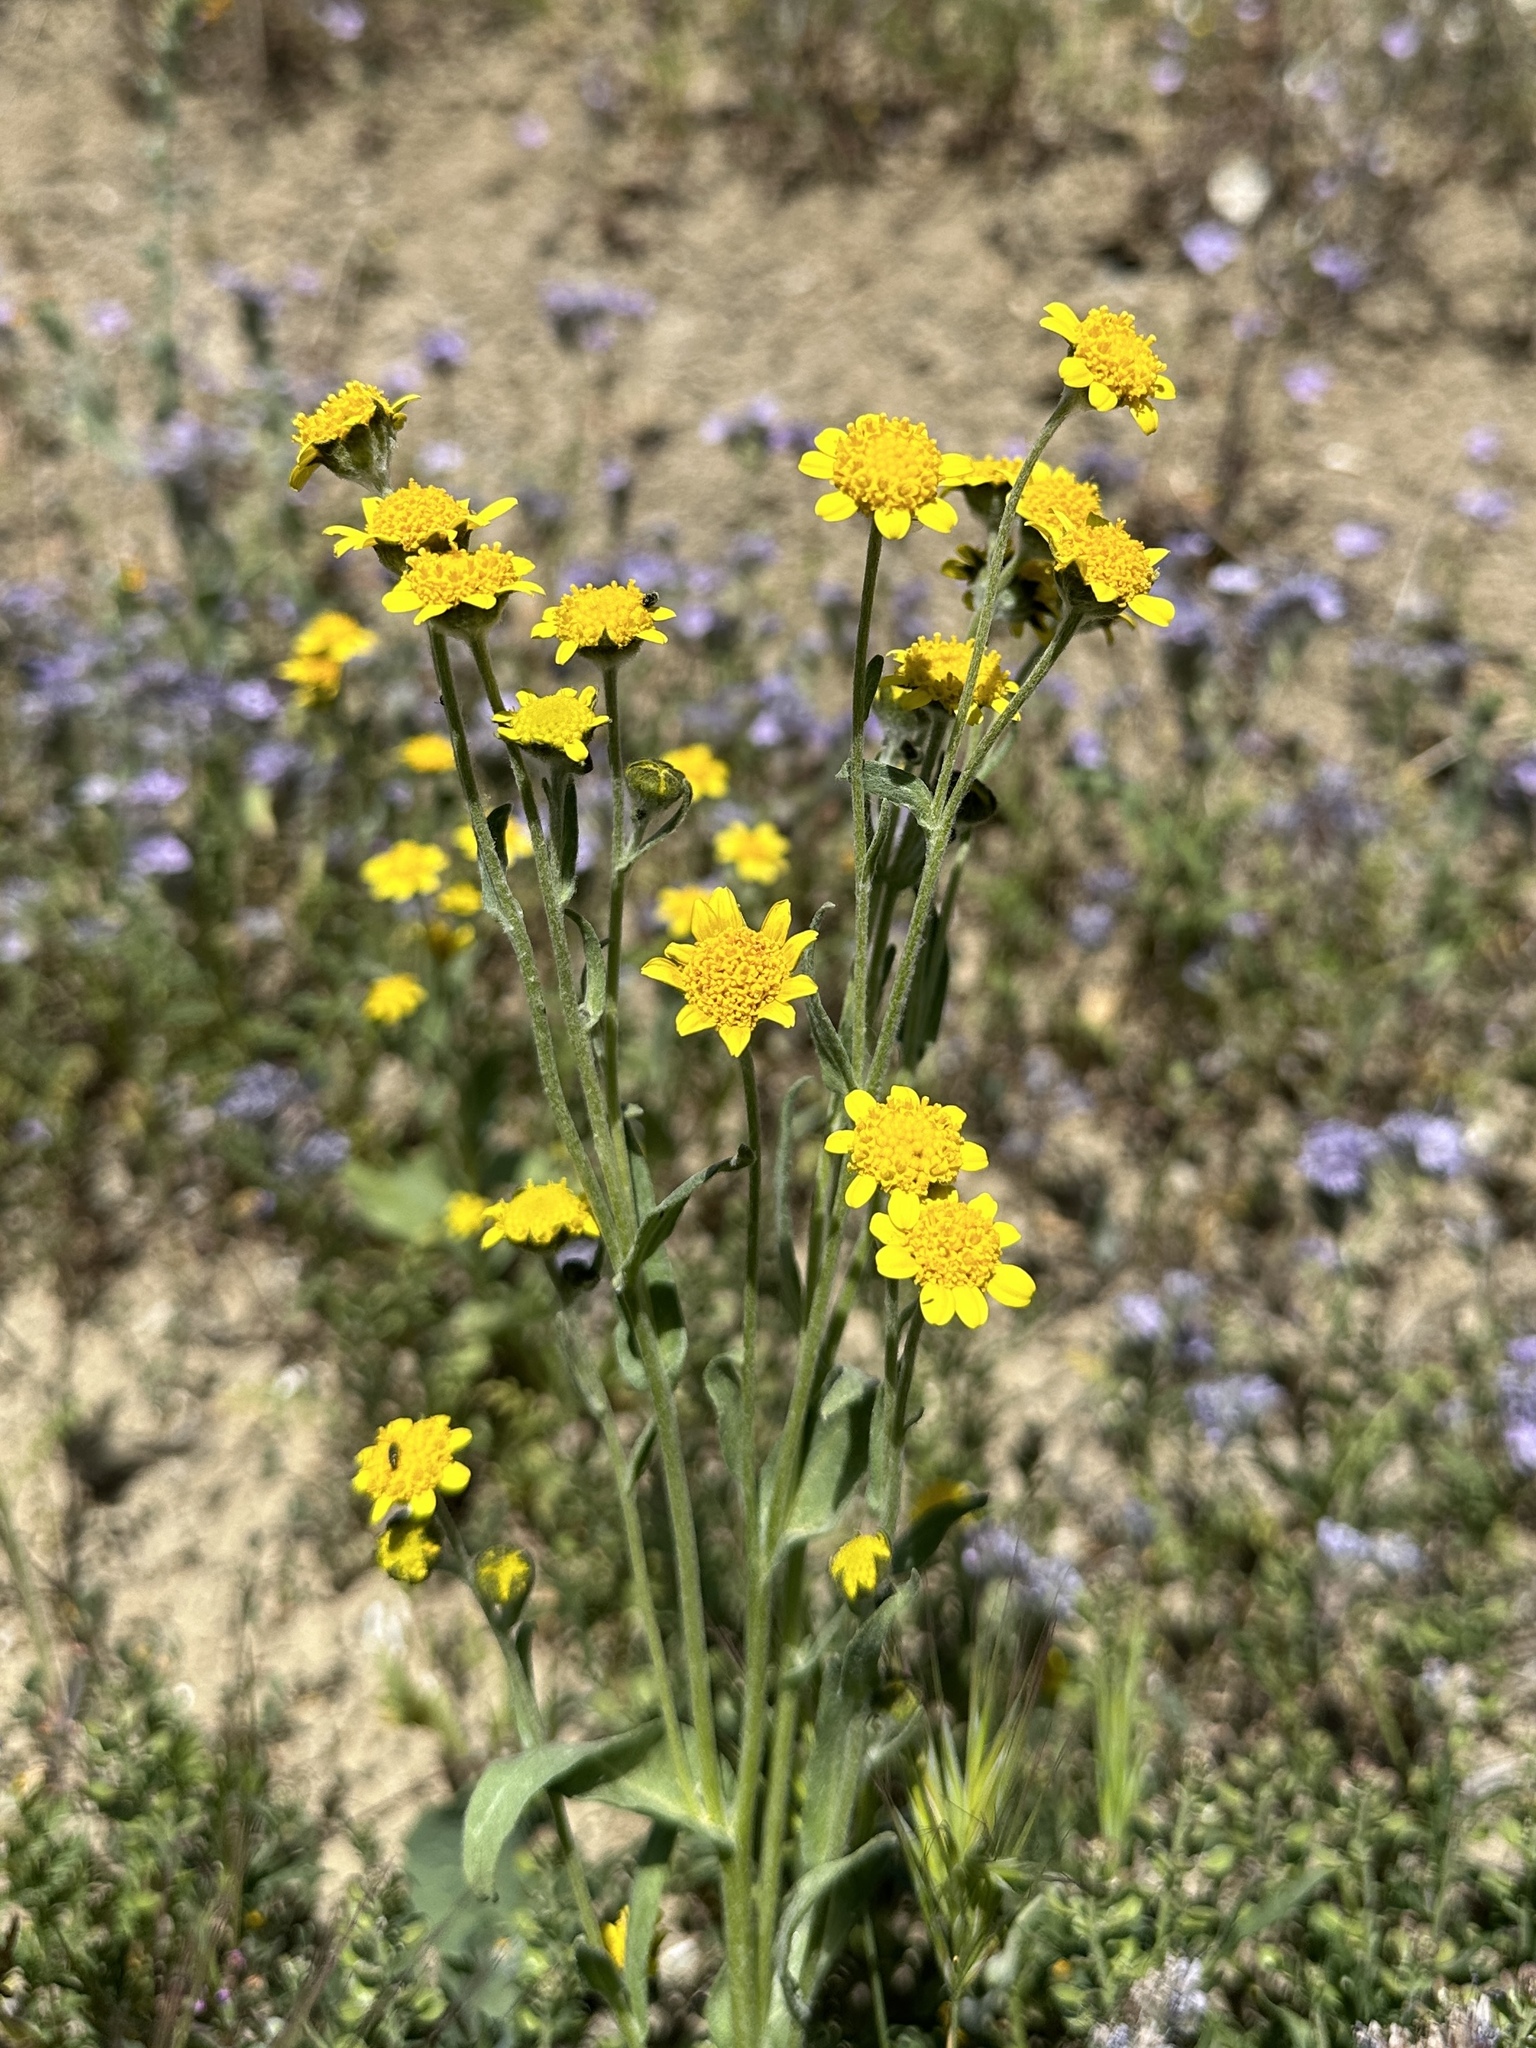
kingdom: Plantae
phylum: Tracheophyta
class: Magnoliopsida
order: Asterales
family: Asteraceae
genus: Monolopia
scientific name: Monolopia stricta
